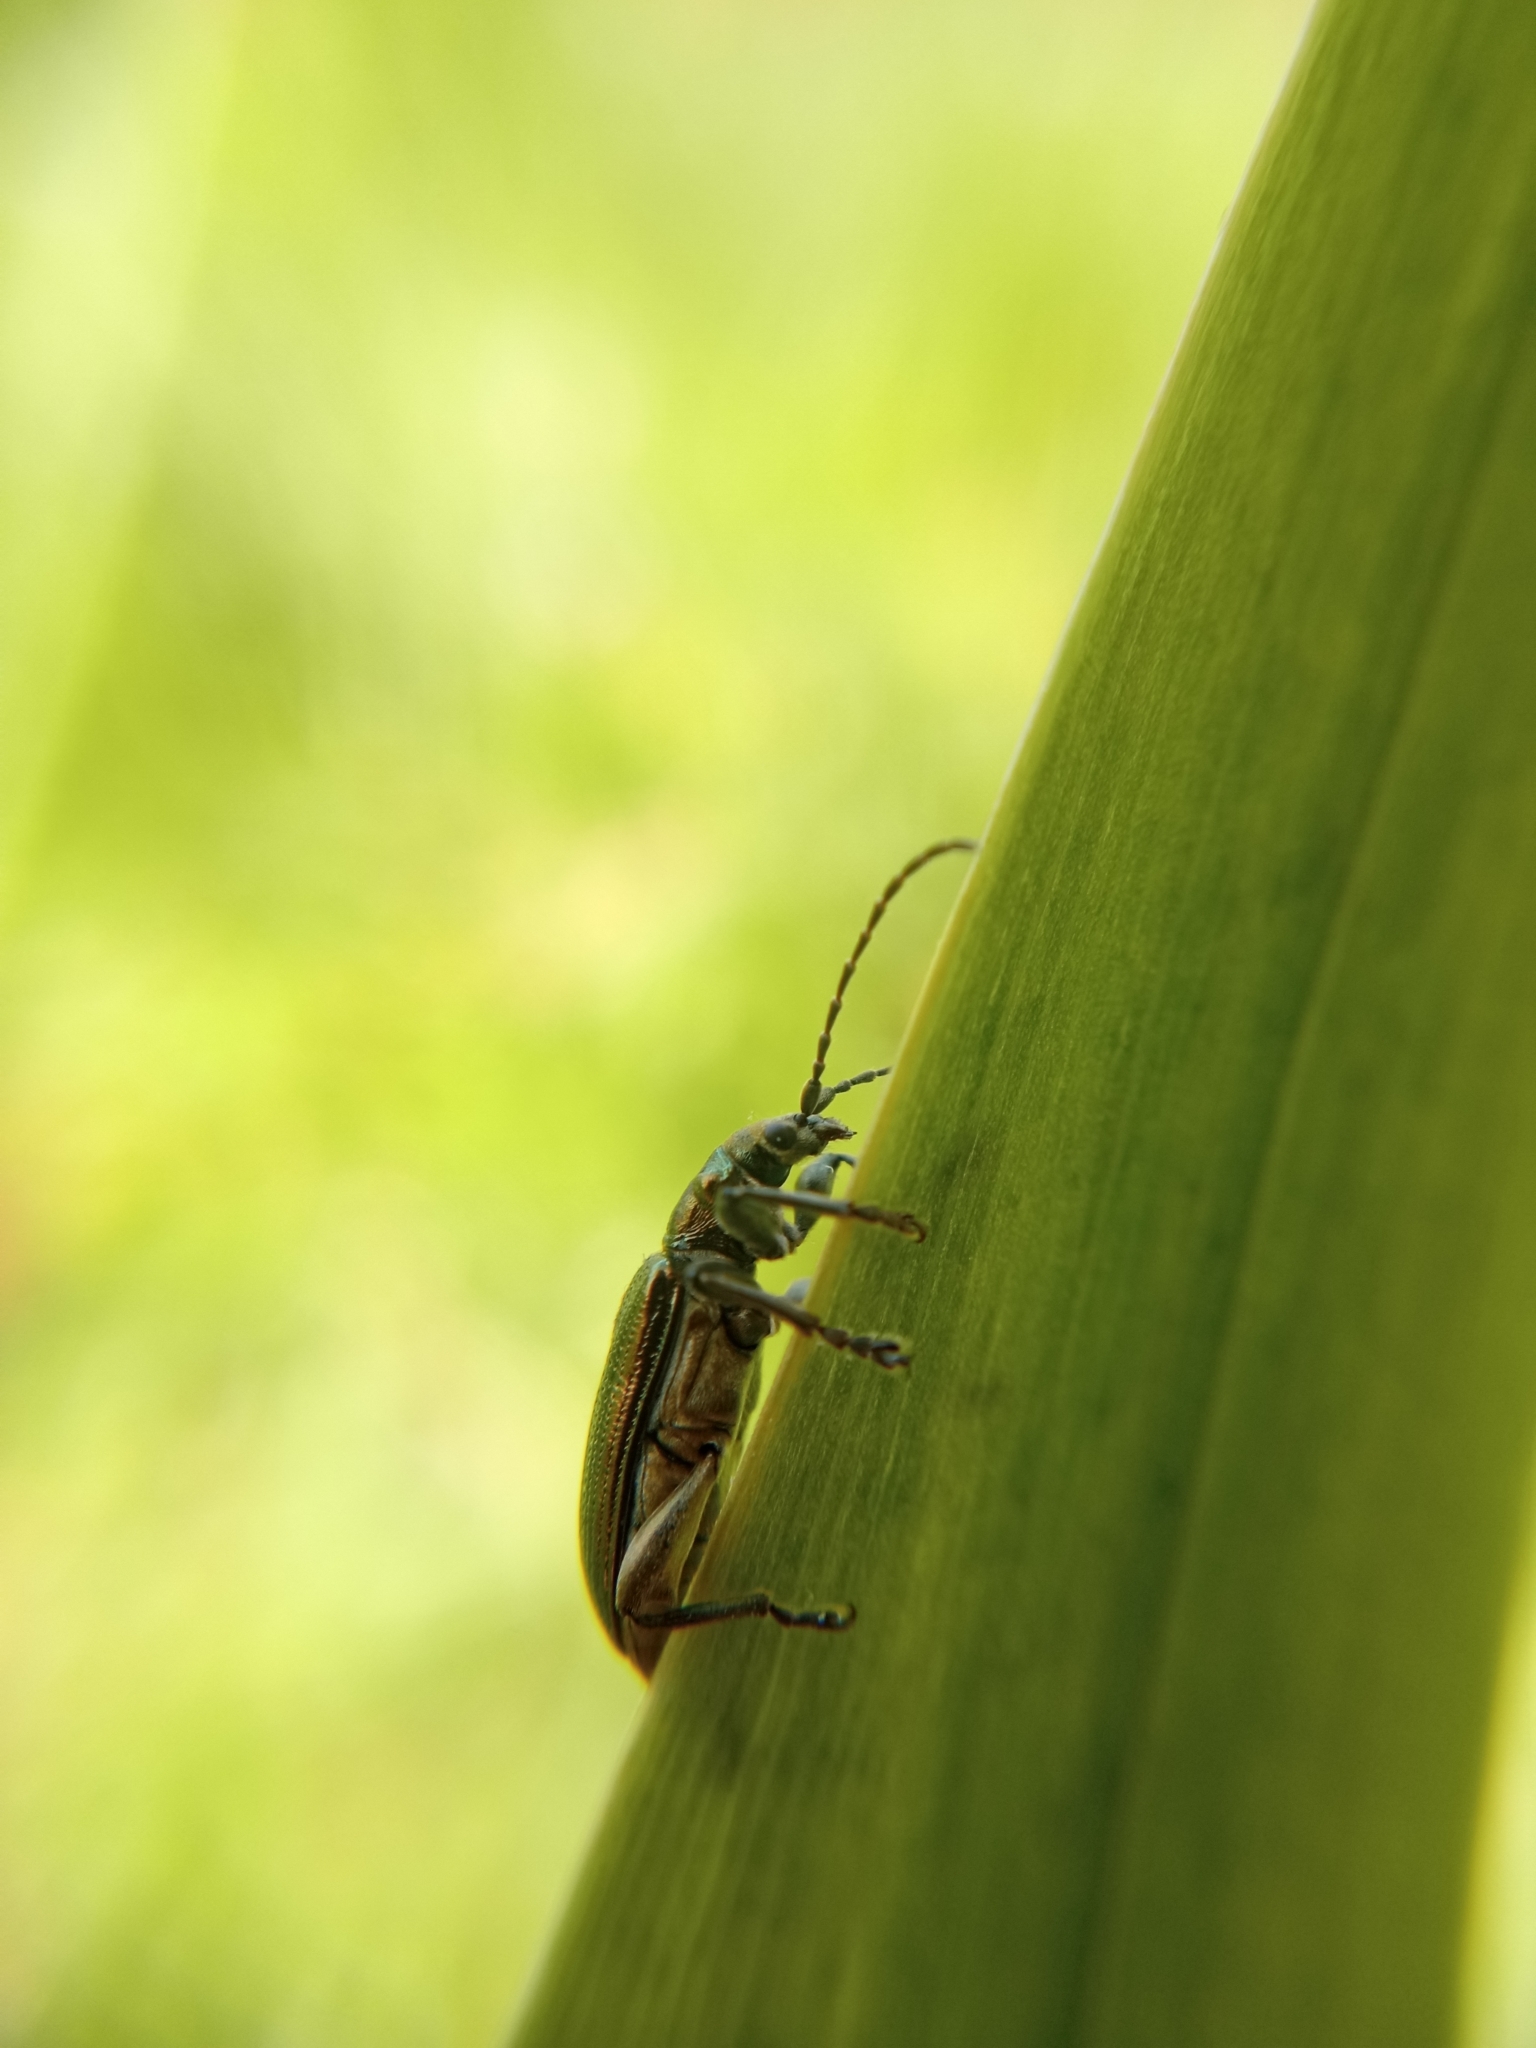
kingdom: Animalia
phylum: Arthropoda
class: Insecta
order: Coleoptera
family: Chrysomelidae
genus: Plateumaris
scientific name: Plateumaris sericea
